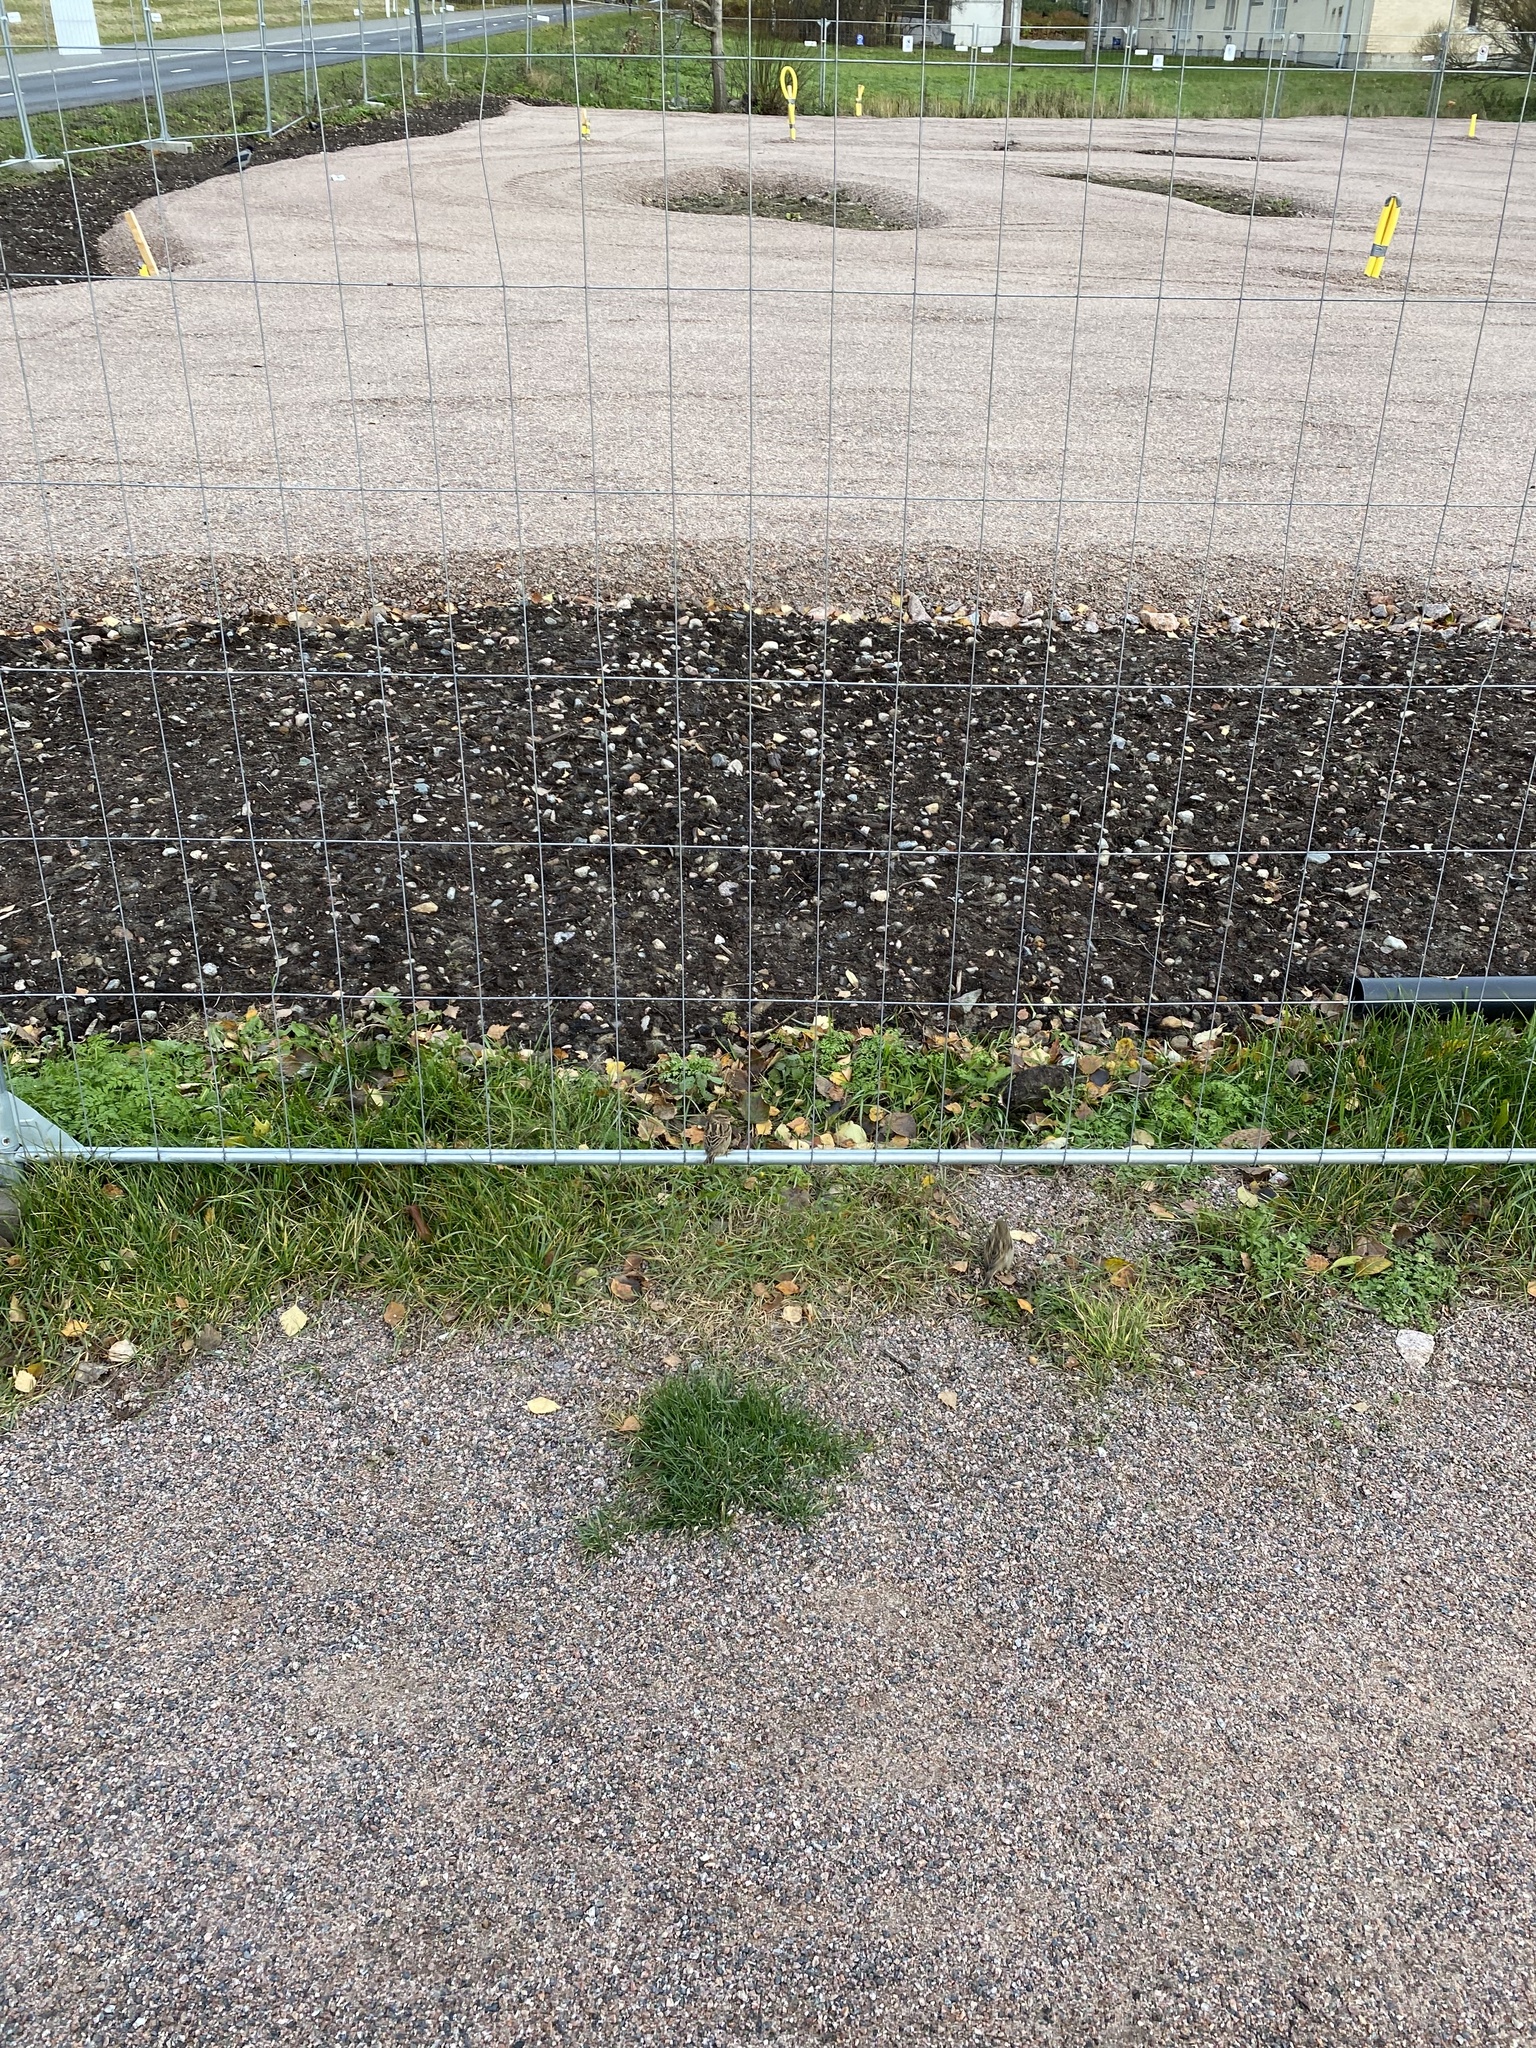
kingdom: Animalia
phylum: Chordata
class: Aves
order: Passeriformes
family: Passeridae
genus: Passer
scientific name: Passer domesticus
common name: House sparrow
